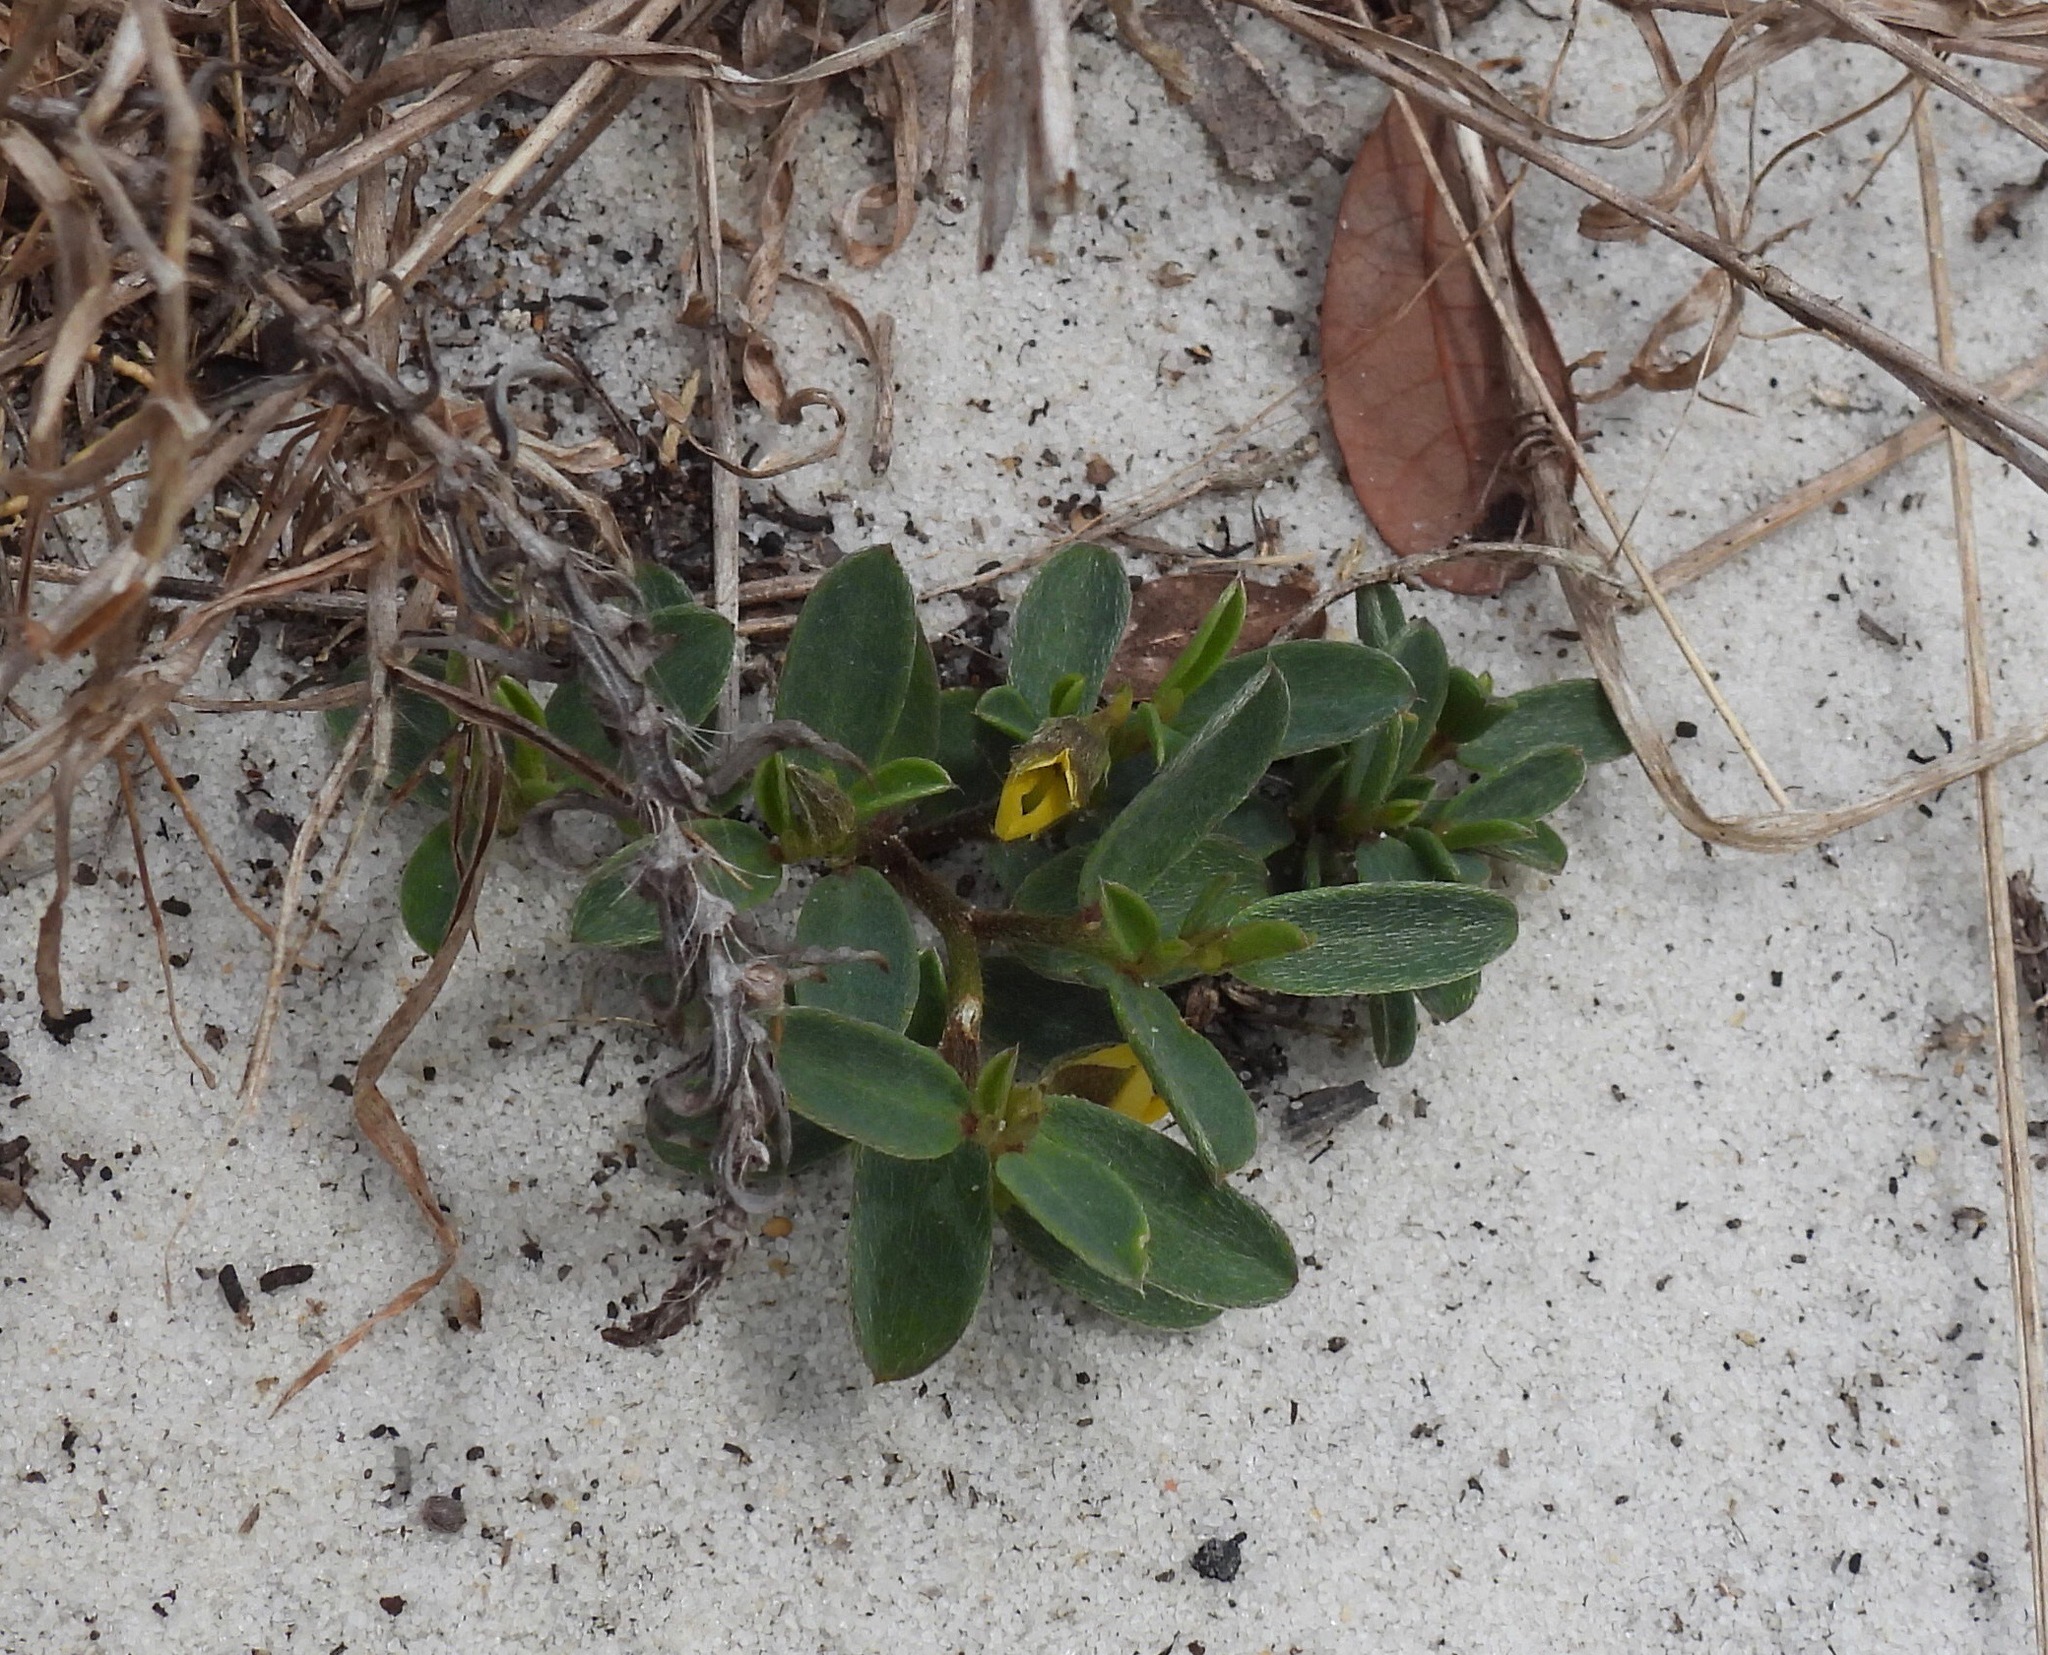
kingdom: Plantae
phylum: Tracheophyta
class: Magnoliopsida
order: Fabales
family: Fabaceae
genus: Crotalaria
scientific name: Crotalaria avonensis
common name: Avon park harebells
